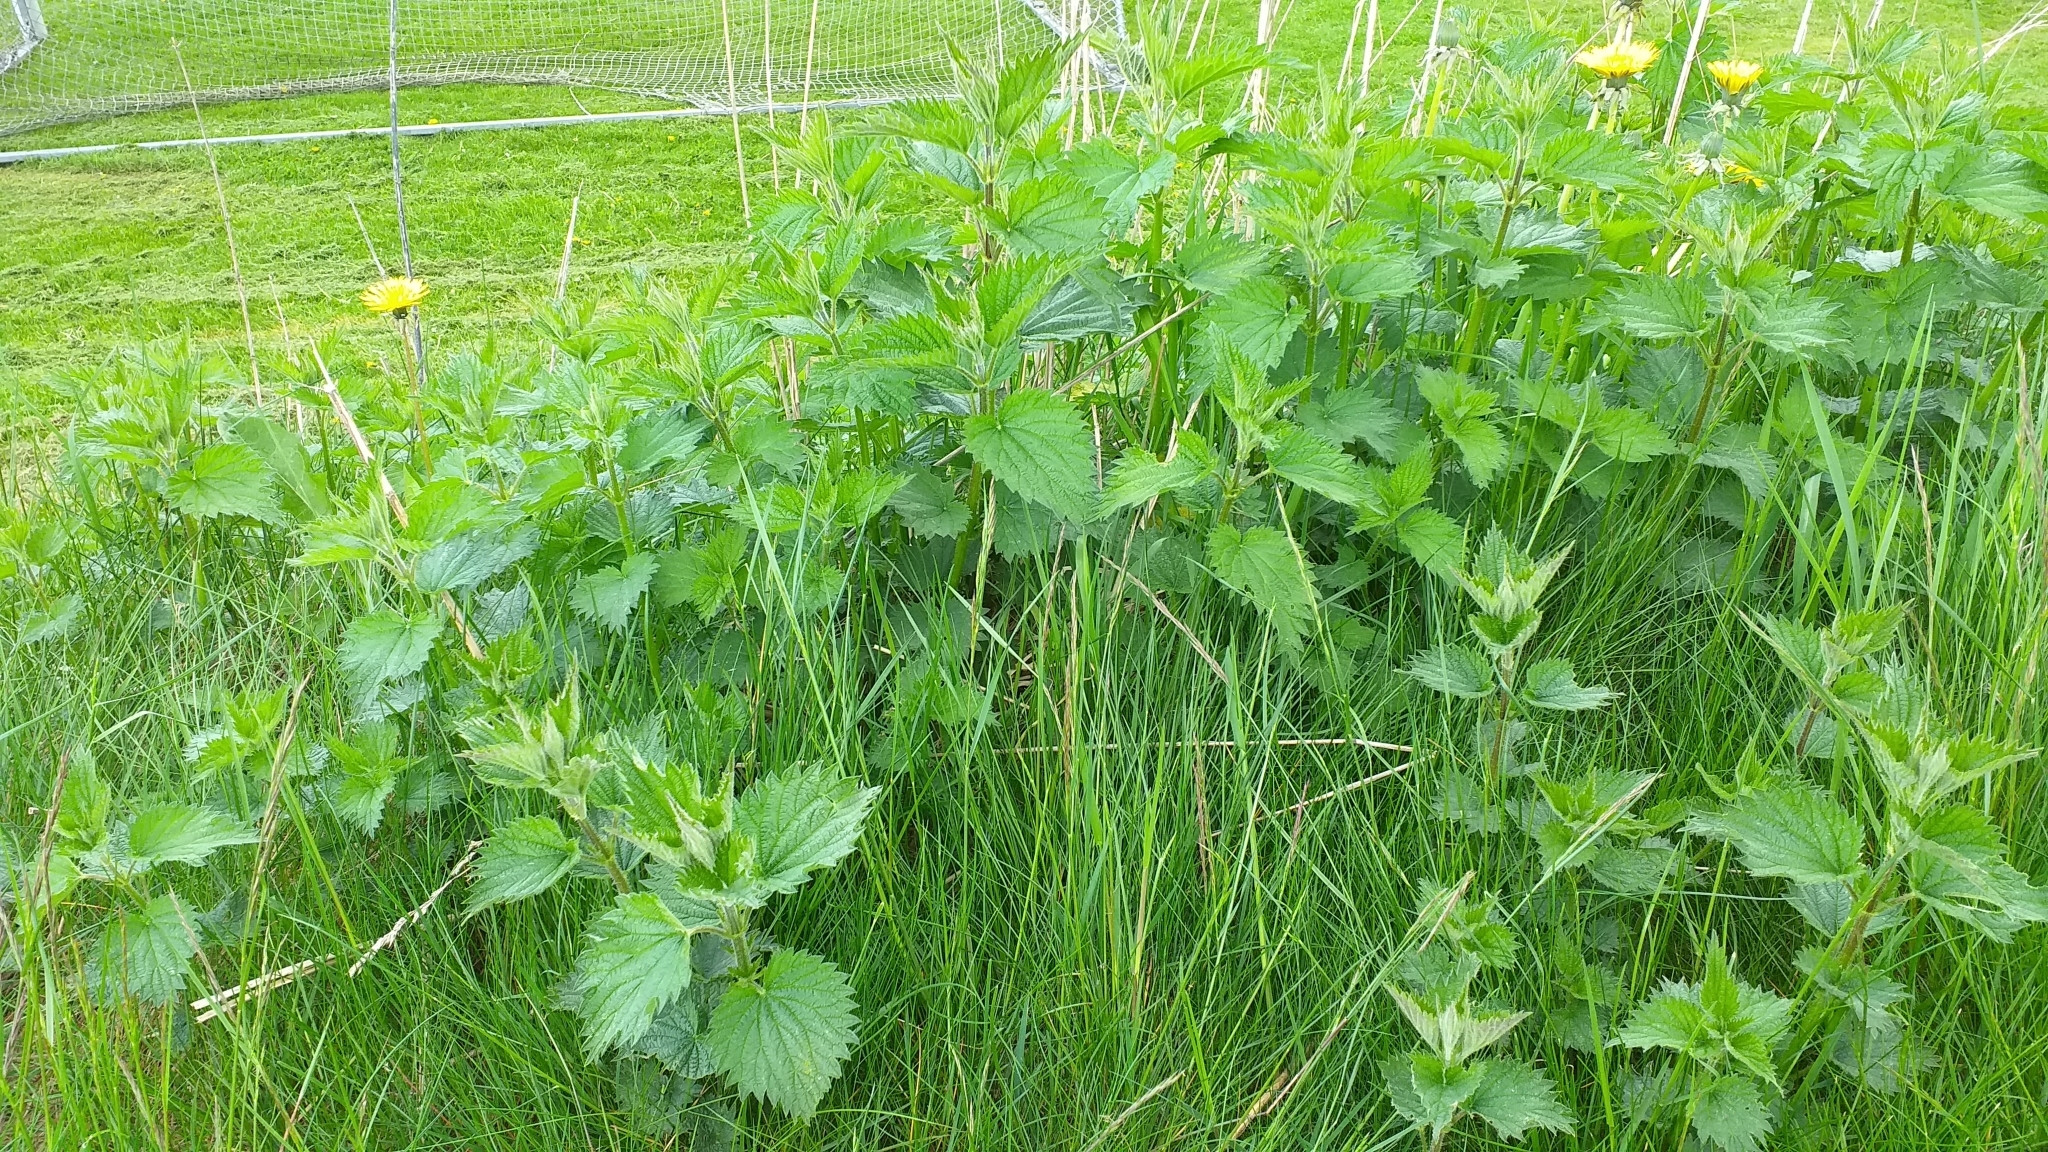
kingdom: Plantae
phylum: Tracheophyta
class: Magnoliopsida
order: Rosales
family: Urticaceae
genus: Urtica
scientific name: Urtica dioica
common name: Common nettle
